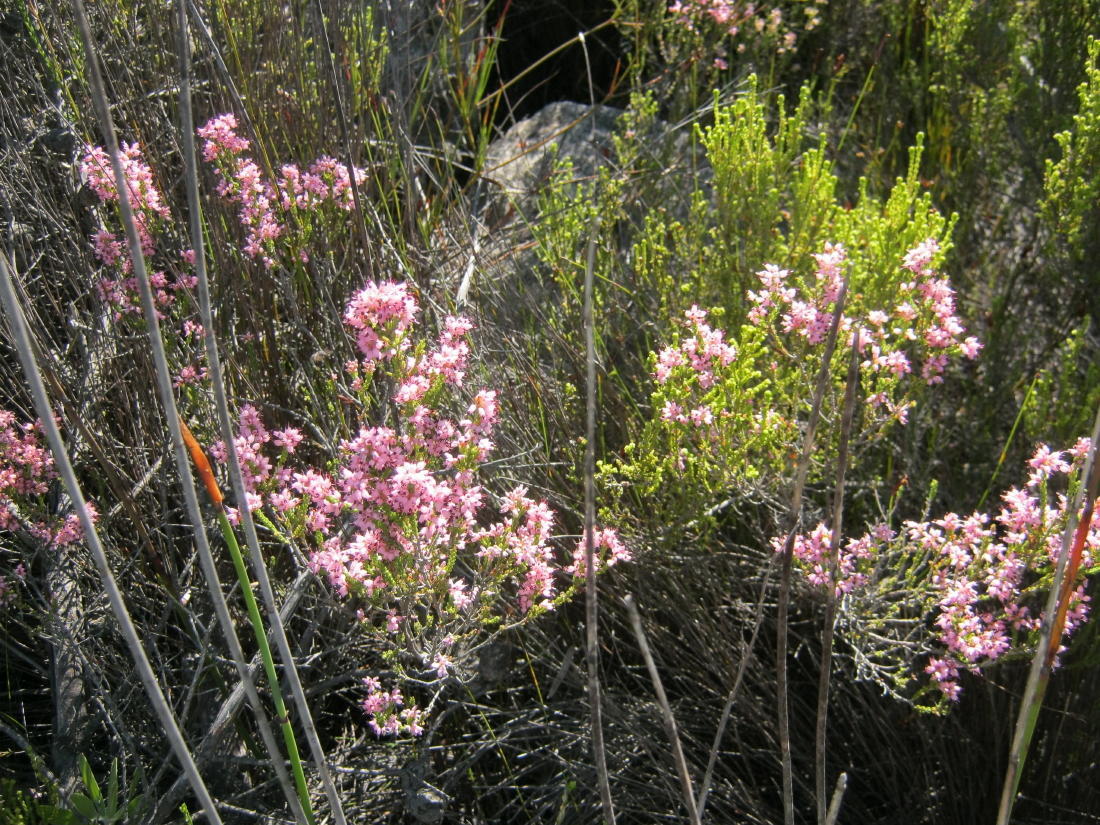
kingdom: Plantae
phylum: Tracheophyta
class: Magnoliopsida
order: Ericales
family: Ericaceae
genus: Erica
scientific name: Erica petraea
